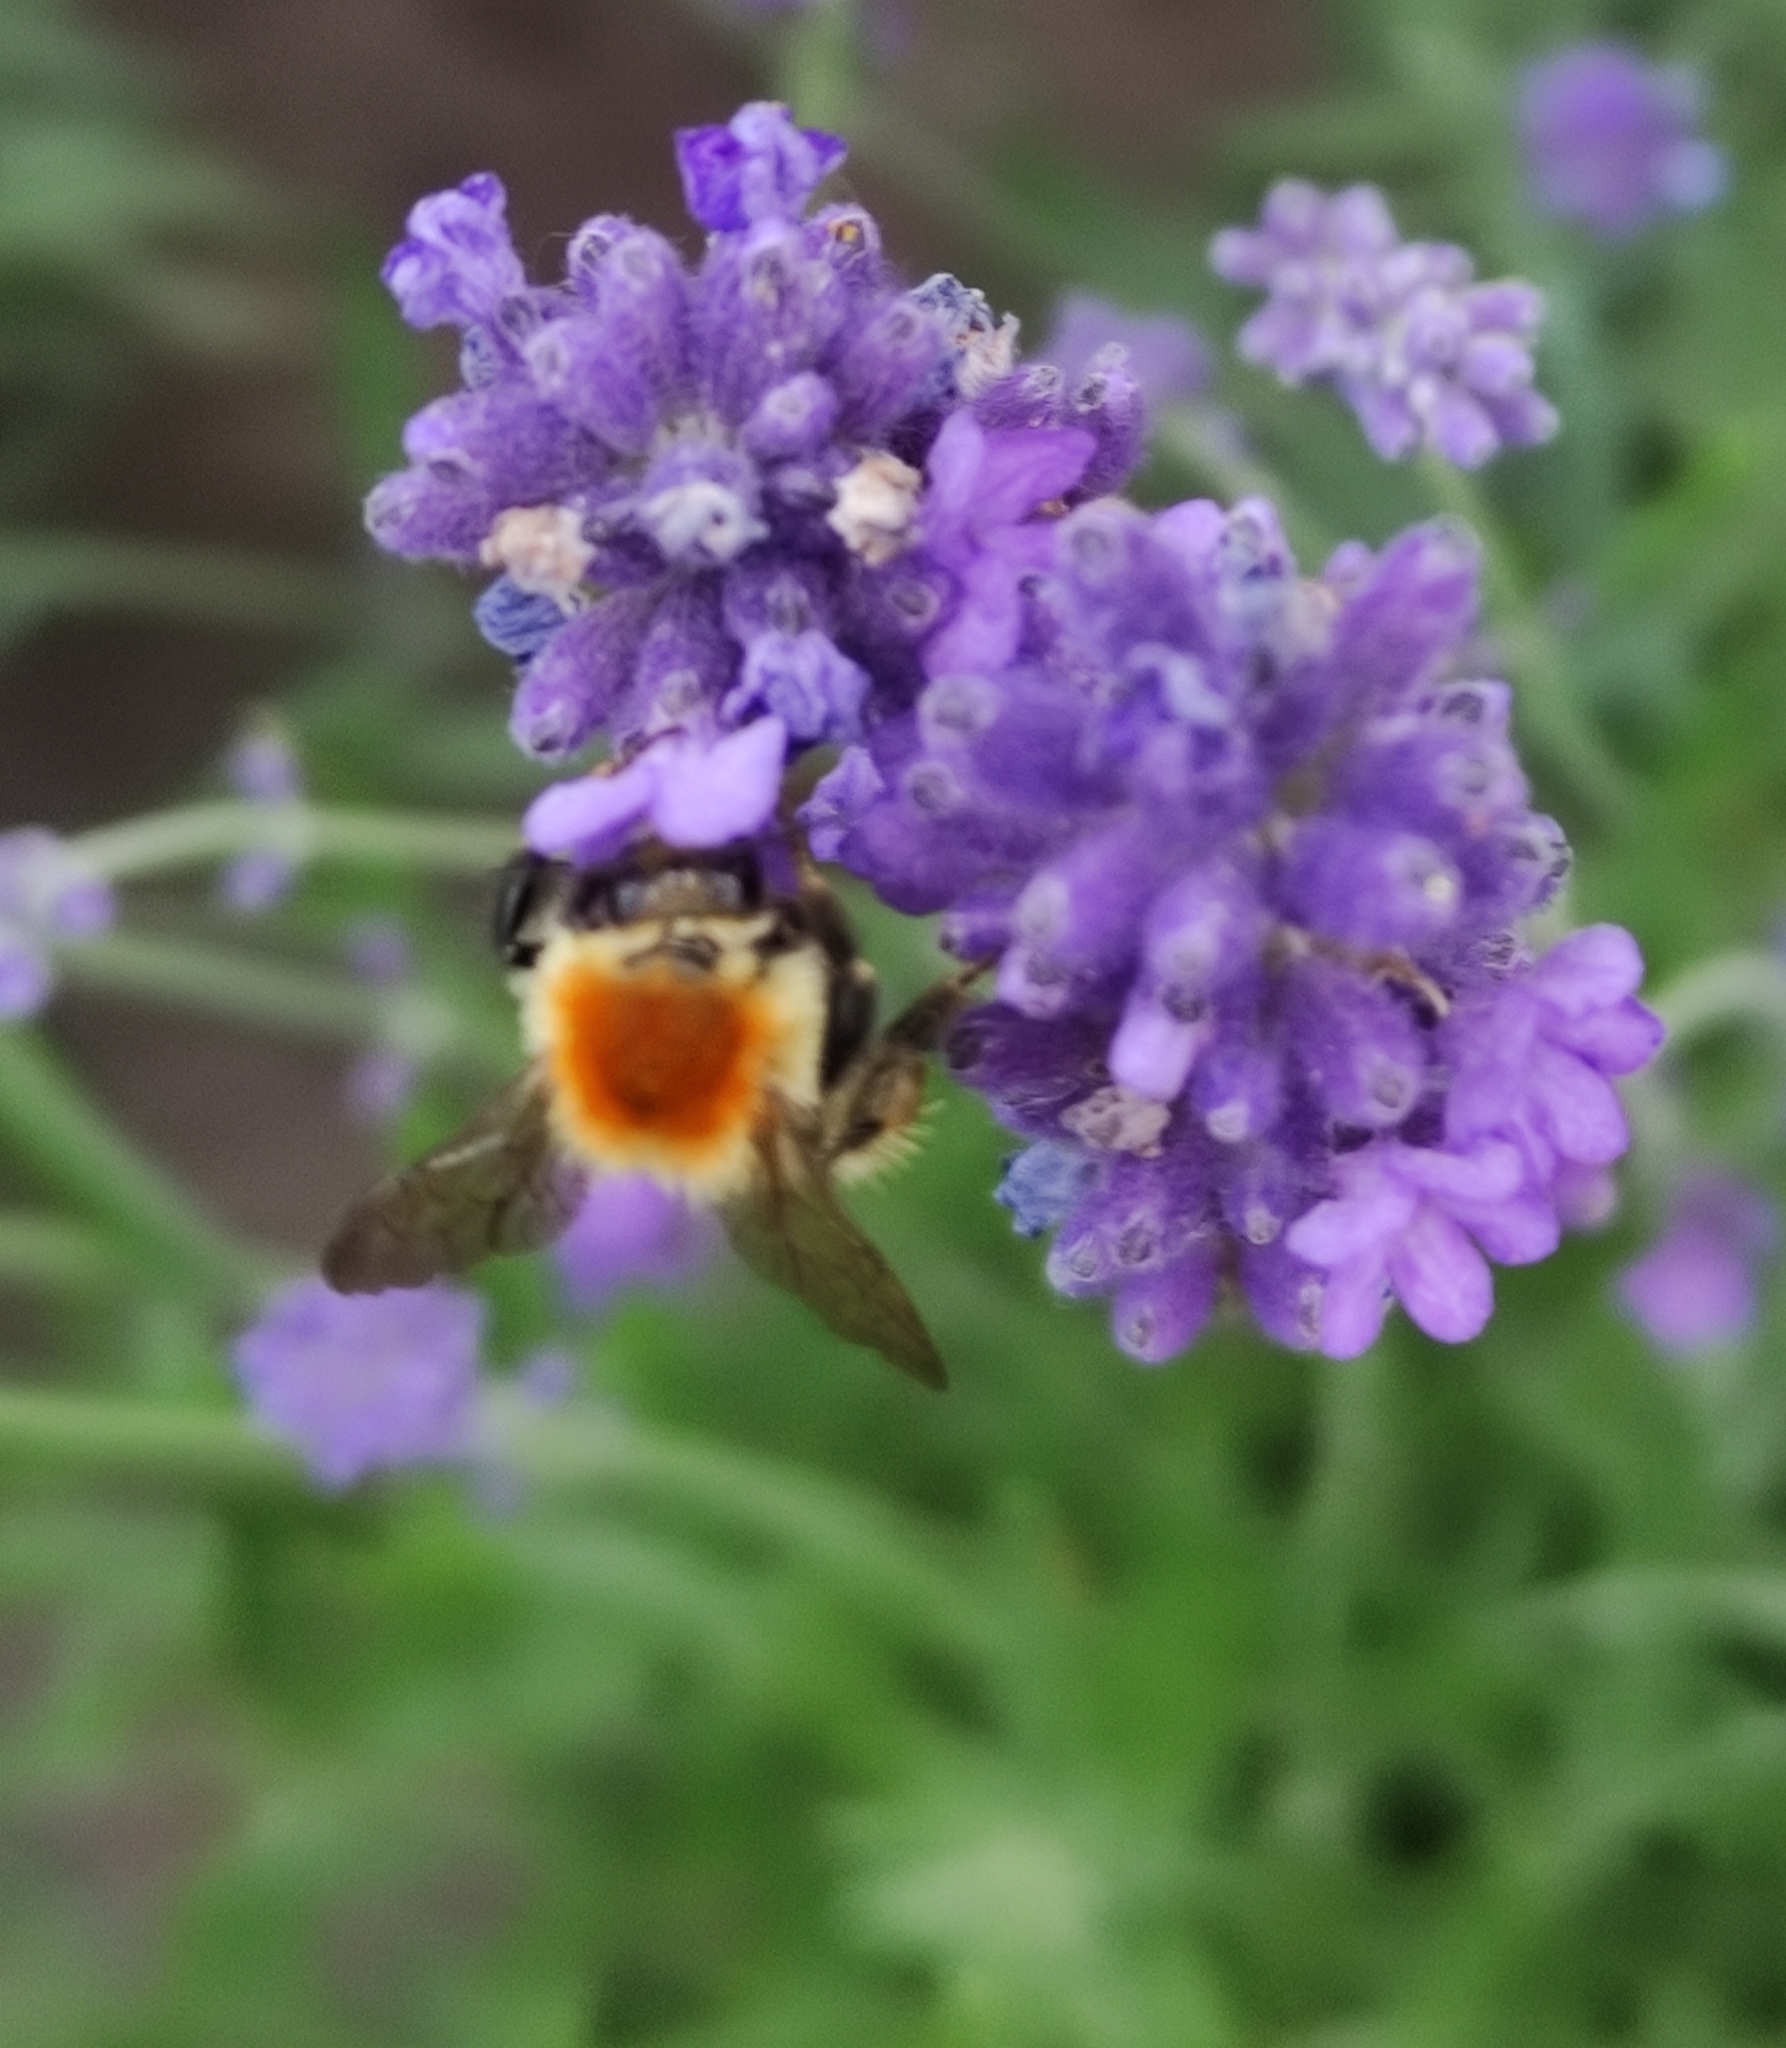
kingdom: Animalia
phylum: Arthropoda
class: Insecta
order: Hymenoptera
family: Apidae
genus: Bombus
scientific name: Bombus muscorum
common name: Moss carder-bee
